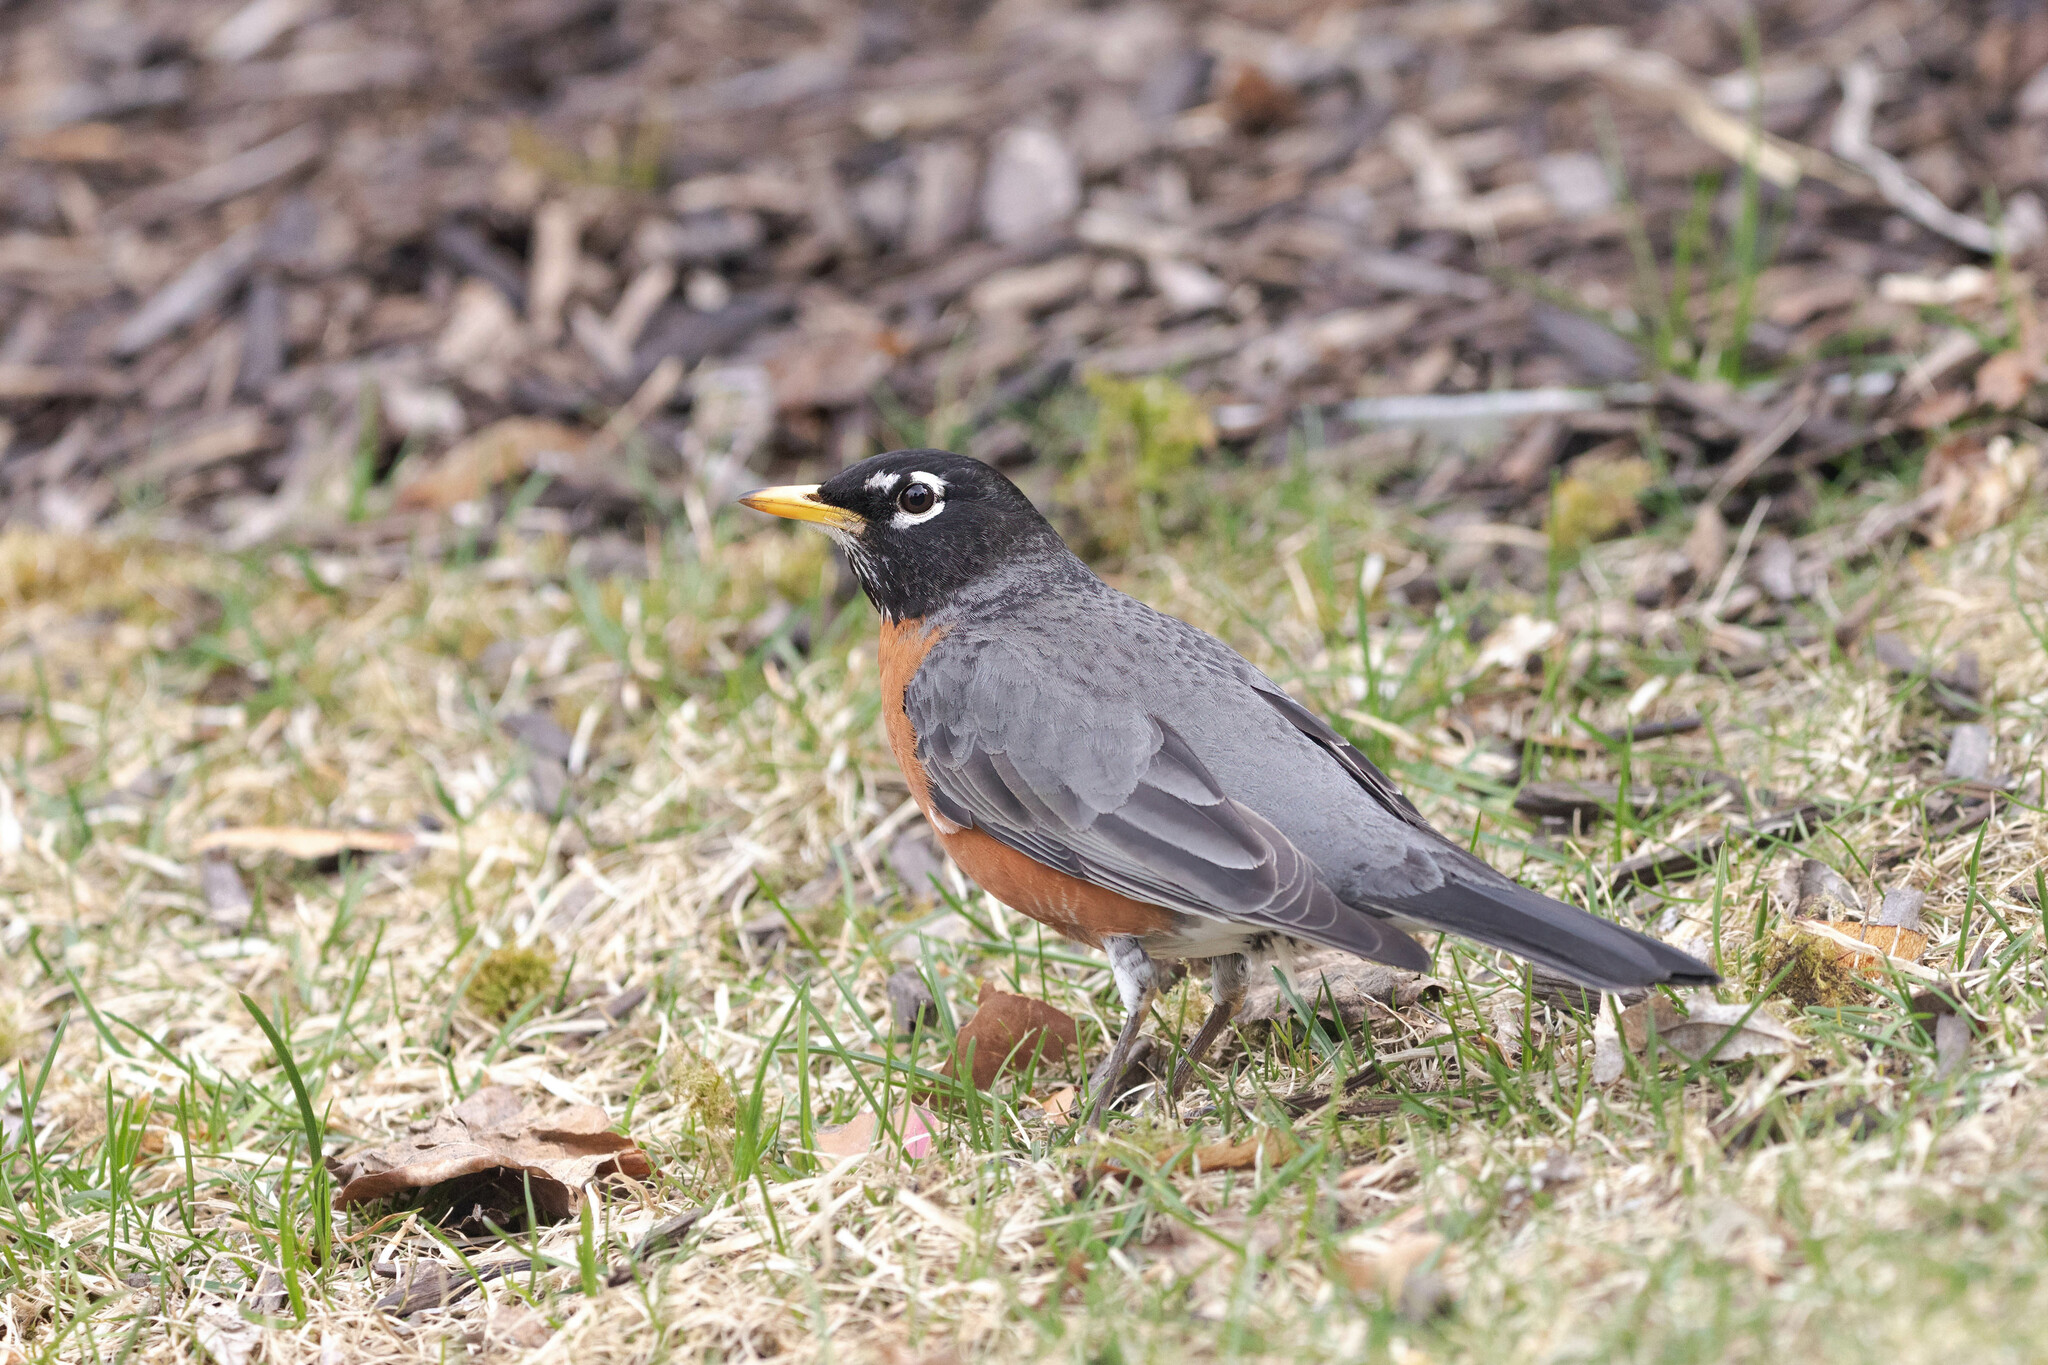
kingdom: Animalia
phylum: Chordata
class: Aves
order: Passeriformes
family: Turdidae
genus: Turdus
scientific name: Turdus migratorius
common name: American robin
